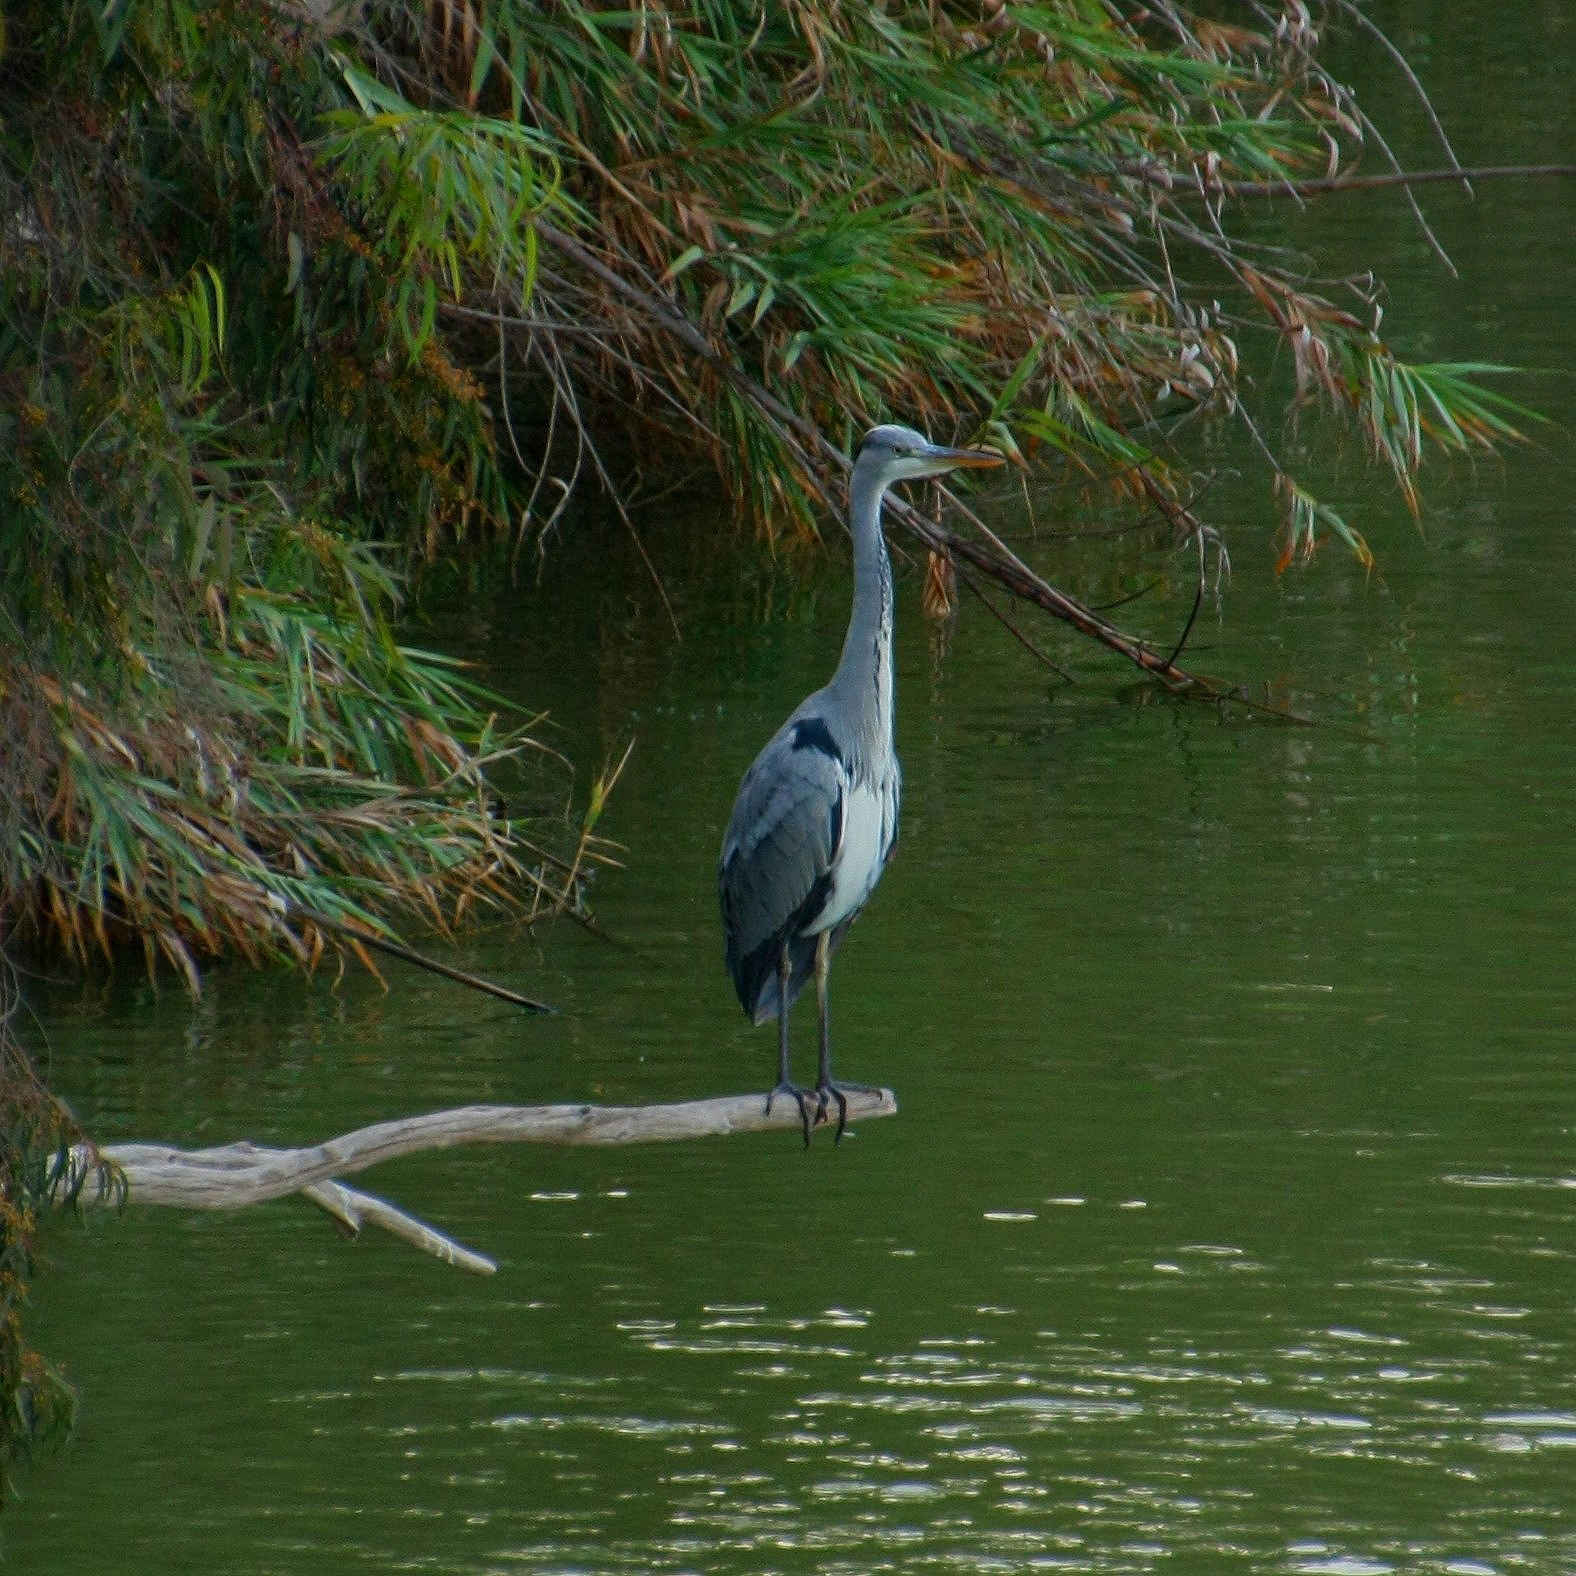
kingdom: Animalia
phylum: Chordata
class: Aves
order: Pelecaniformes
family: Ardeidae
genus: Ardea
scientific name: Ardea cinerea
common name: Grey heron
